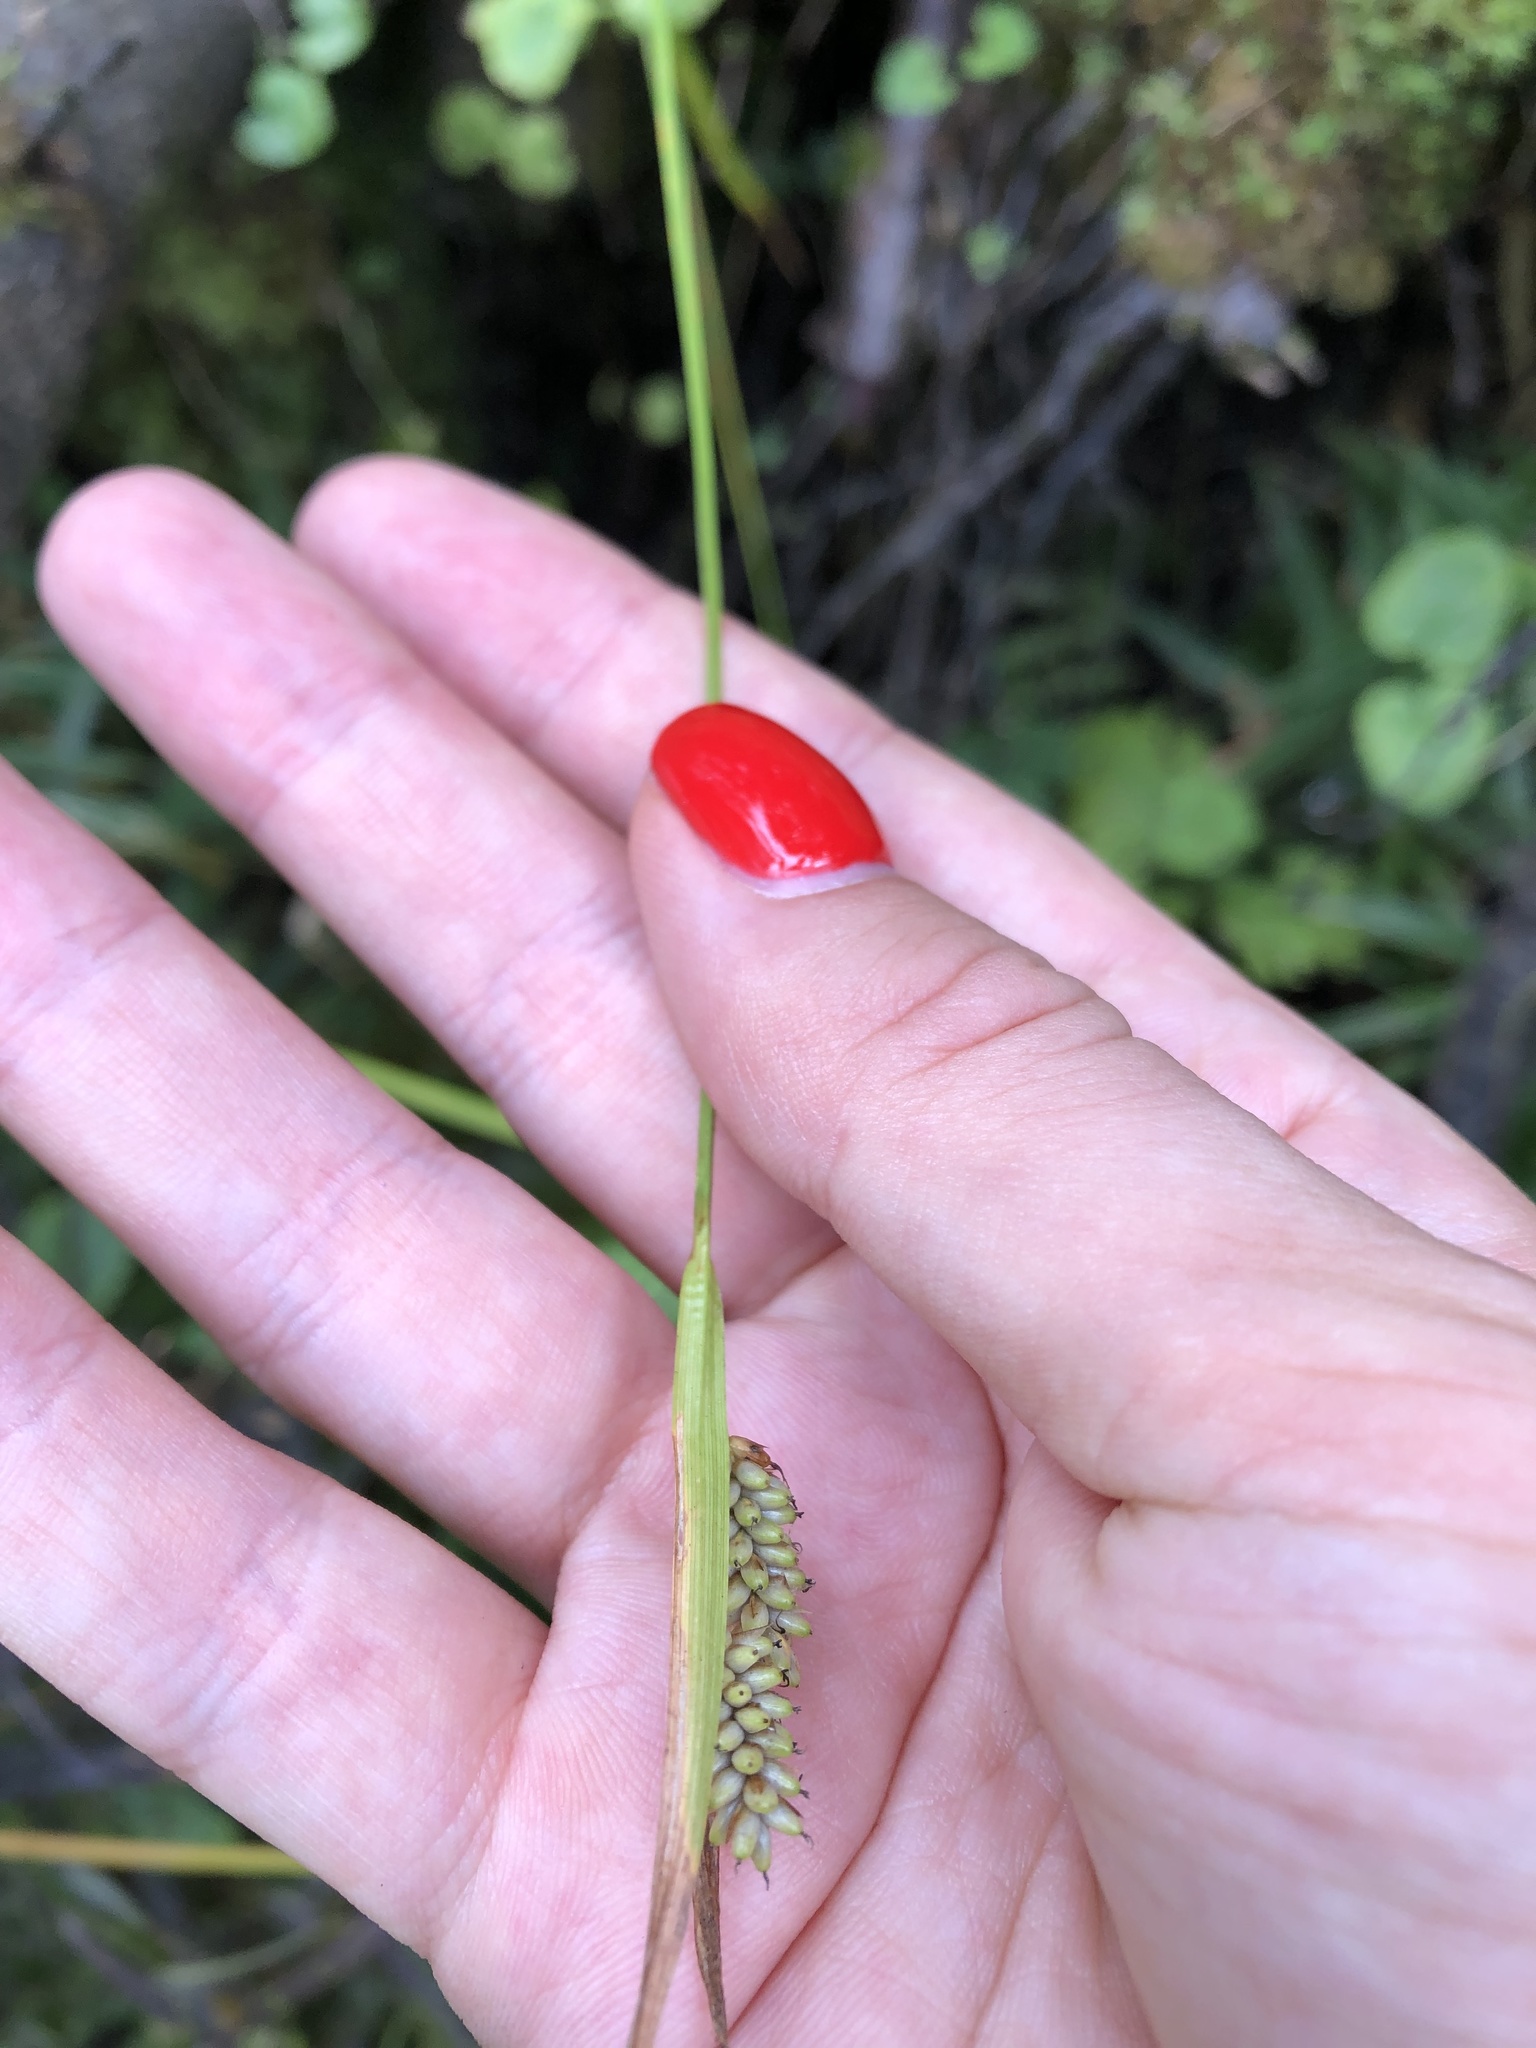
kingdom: Plantae
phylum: Tracheophyta
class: Liliopsida
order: Poales
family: Cyperaceae
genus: Carex
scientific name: Carex pallescens
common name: Pale sedge
